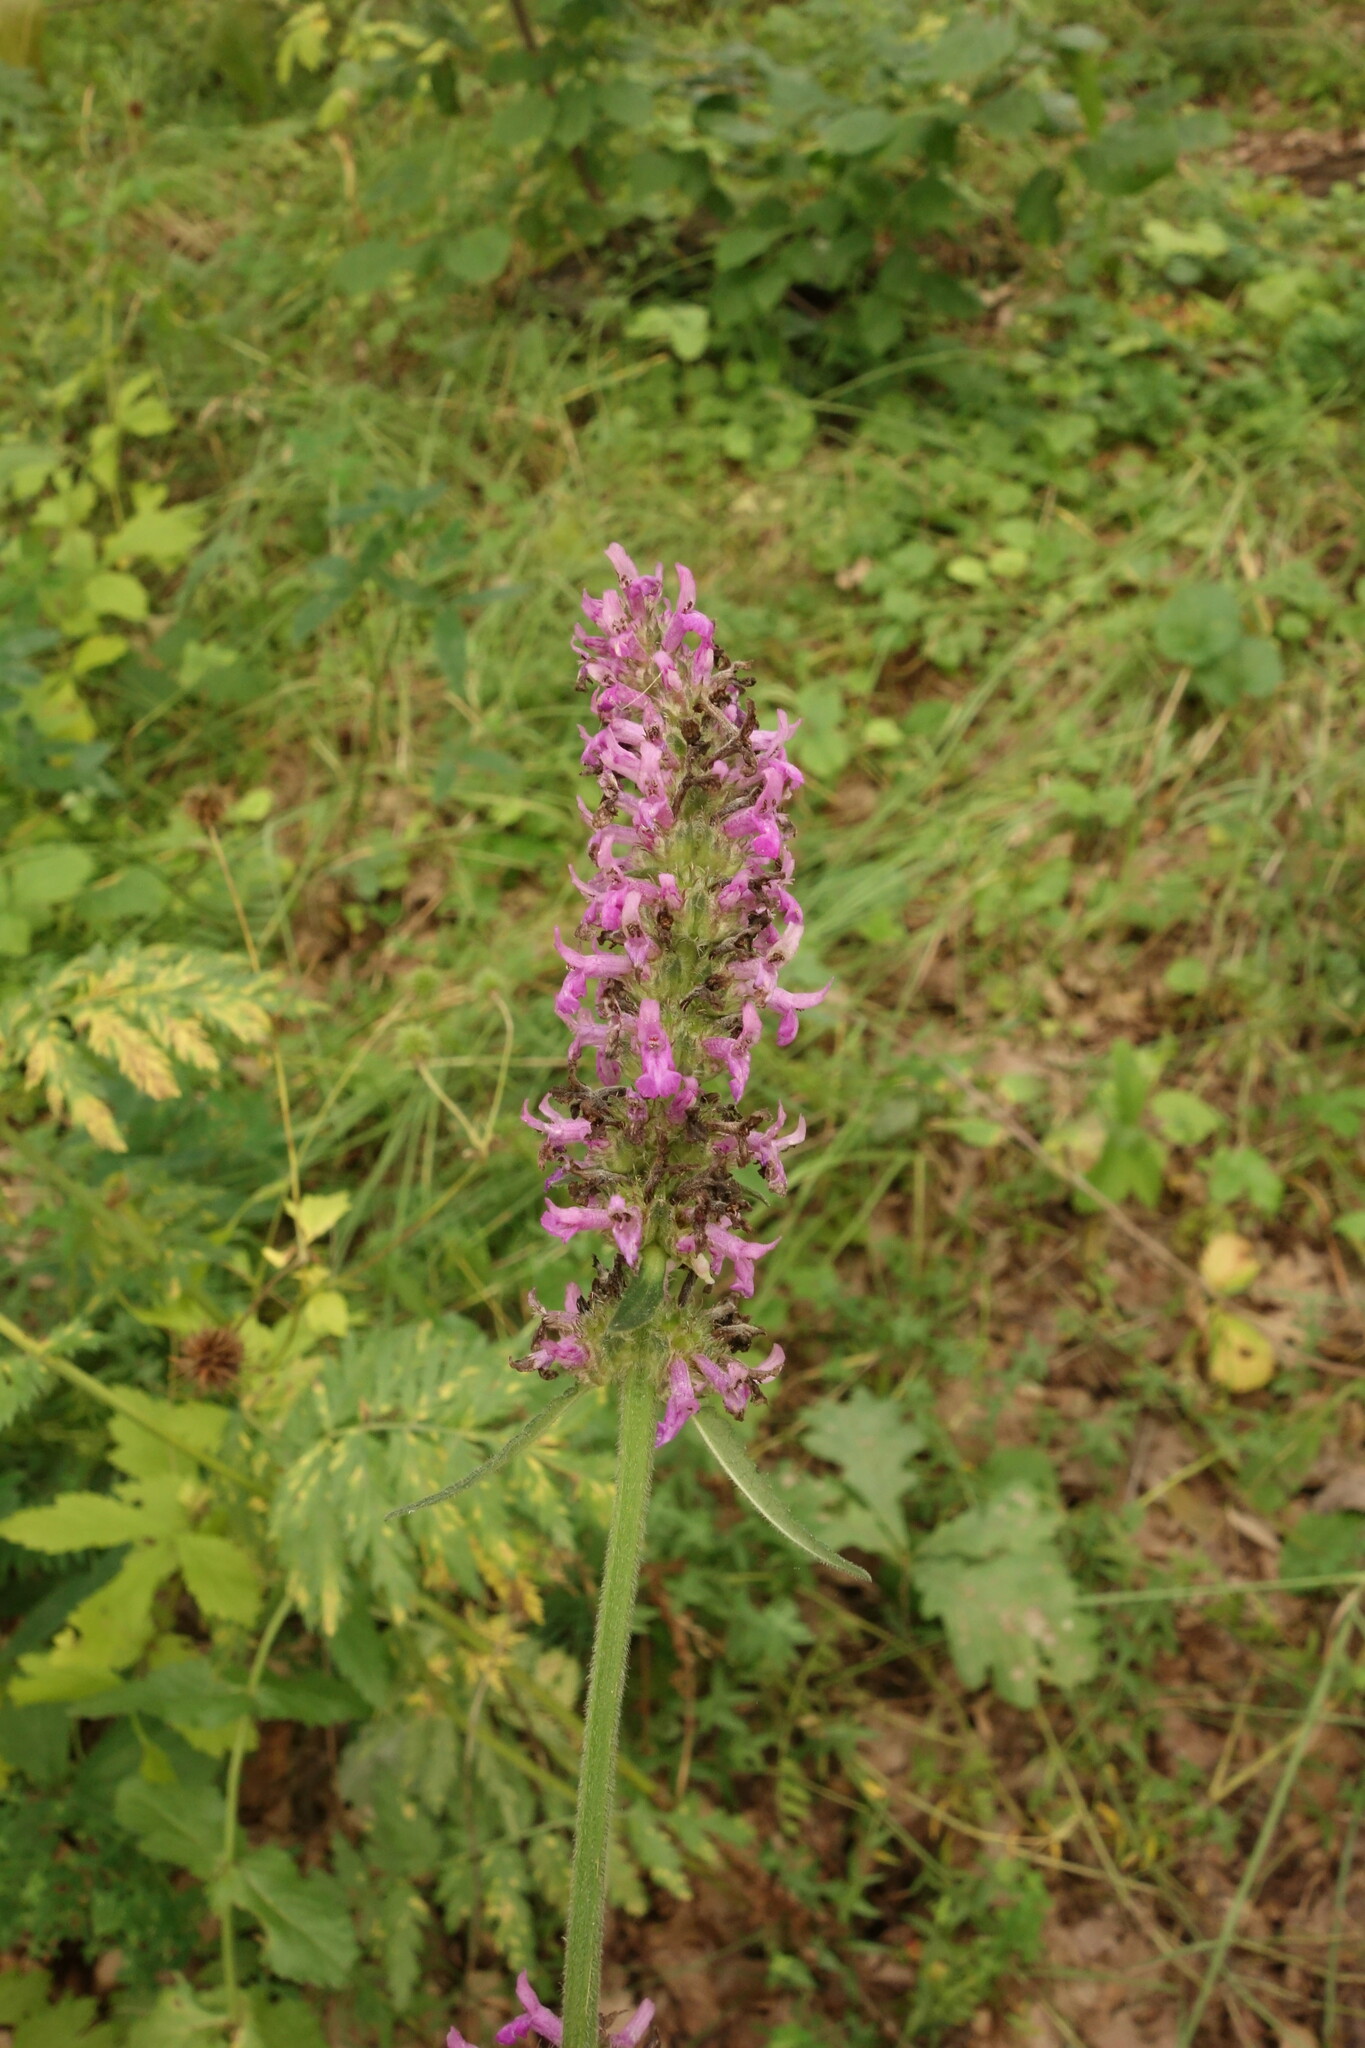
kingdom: Plantae
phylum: Tracheophyta
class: Magnoliopsida
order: Lamiales
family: Lamiaceae
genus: Betonica
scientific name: Betonica officinalis
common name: Bishop's-wort
